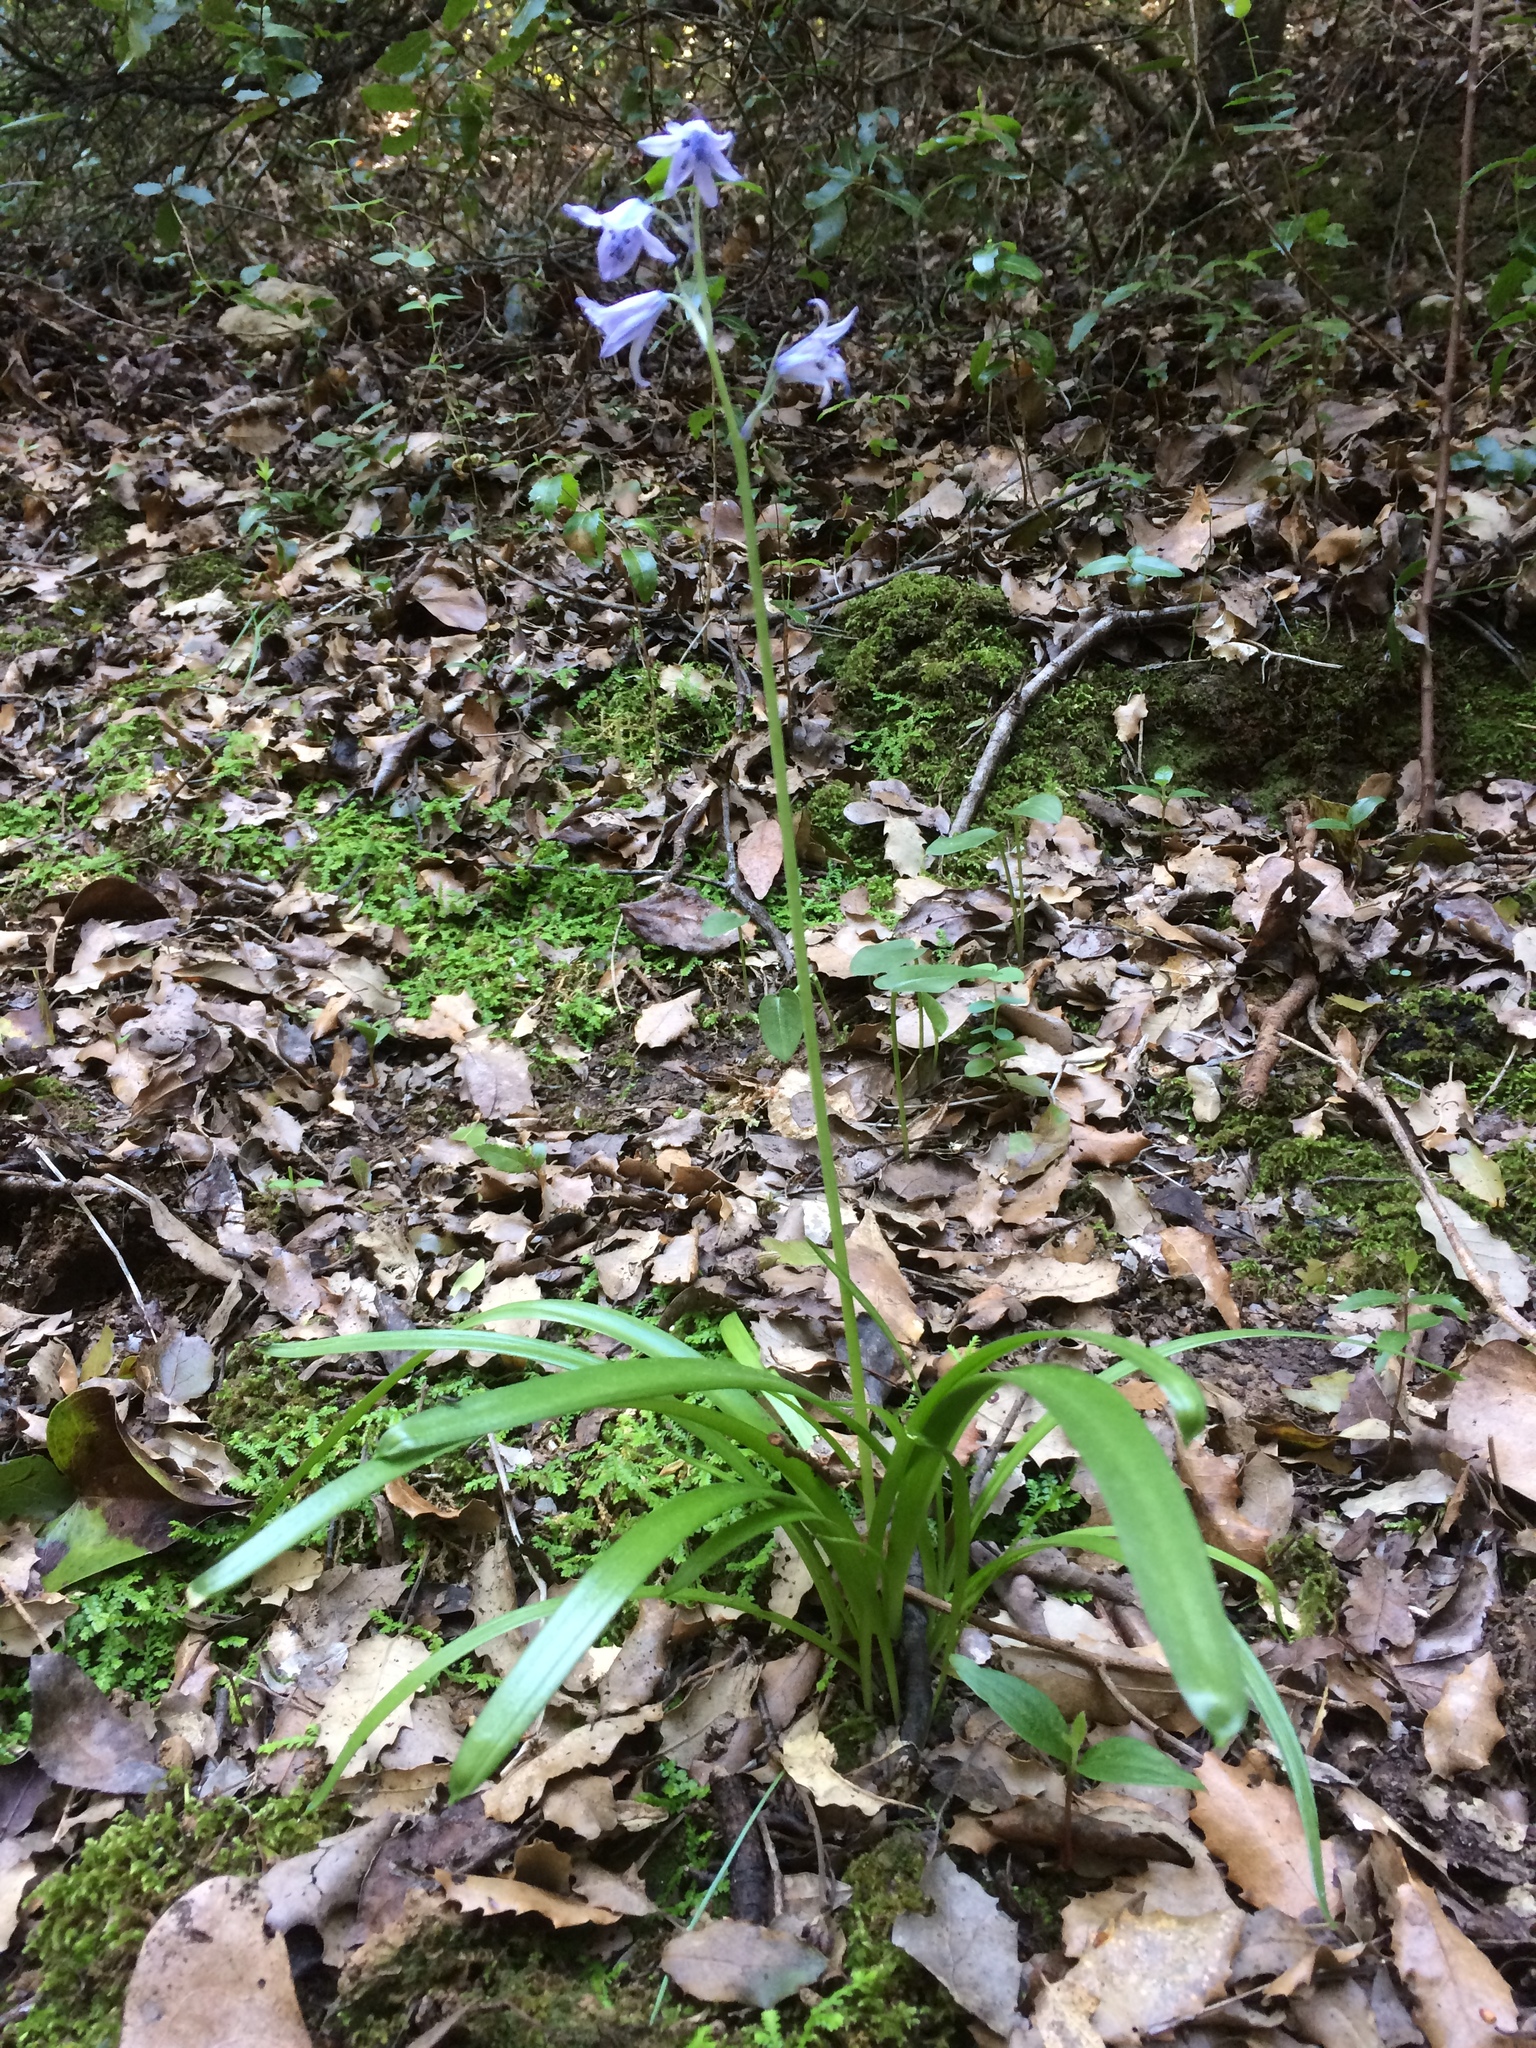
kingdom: Plantae
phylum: Tracheophyta
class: Liliopsida
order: Asparagales
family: Asparagaceae
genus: Hyacinthoides
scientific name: Hyacinthoides hispanica
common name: Spanish bluebell
